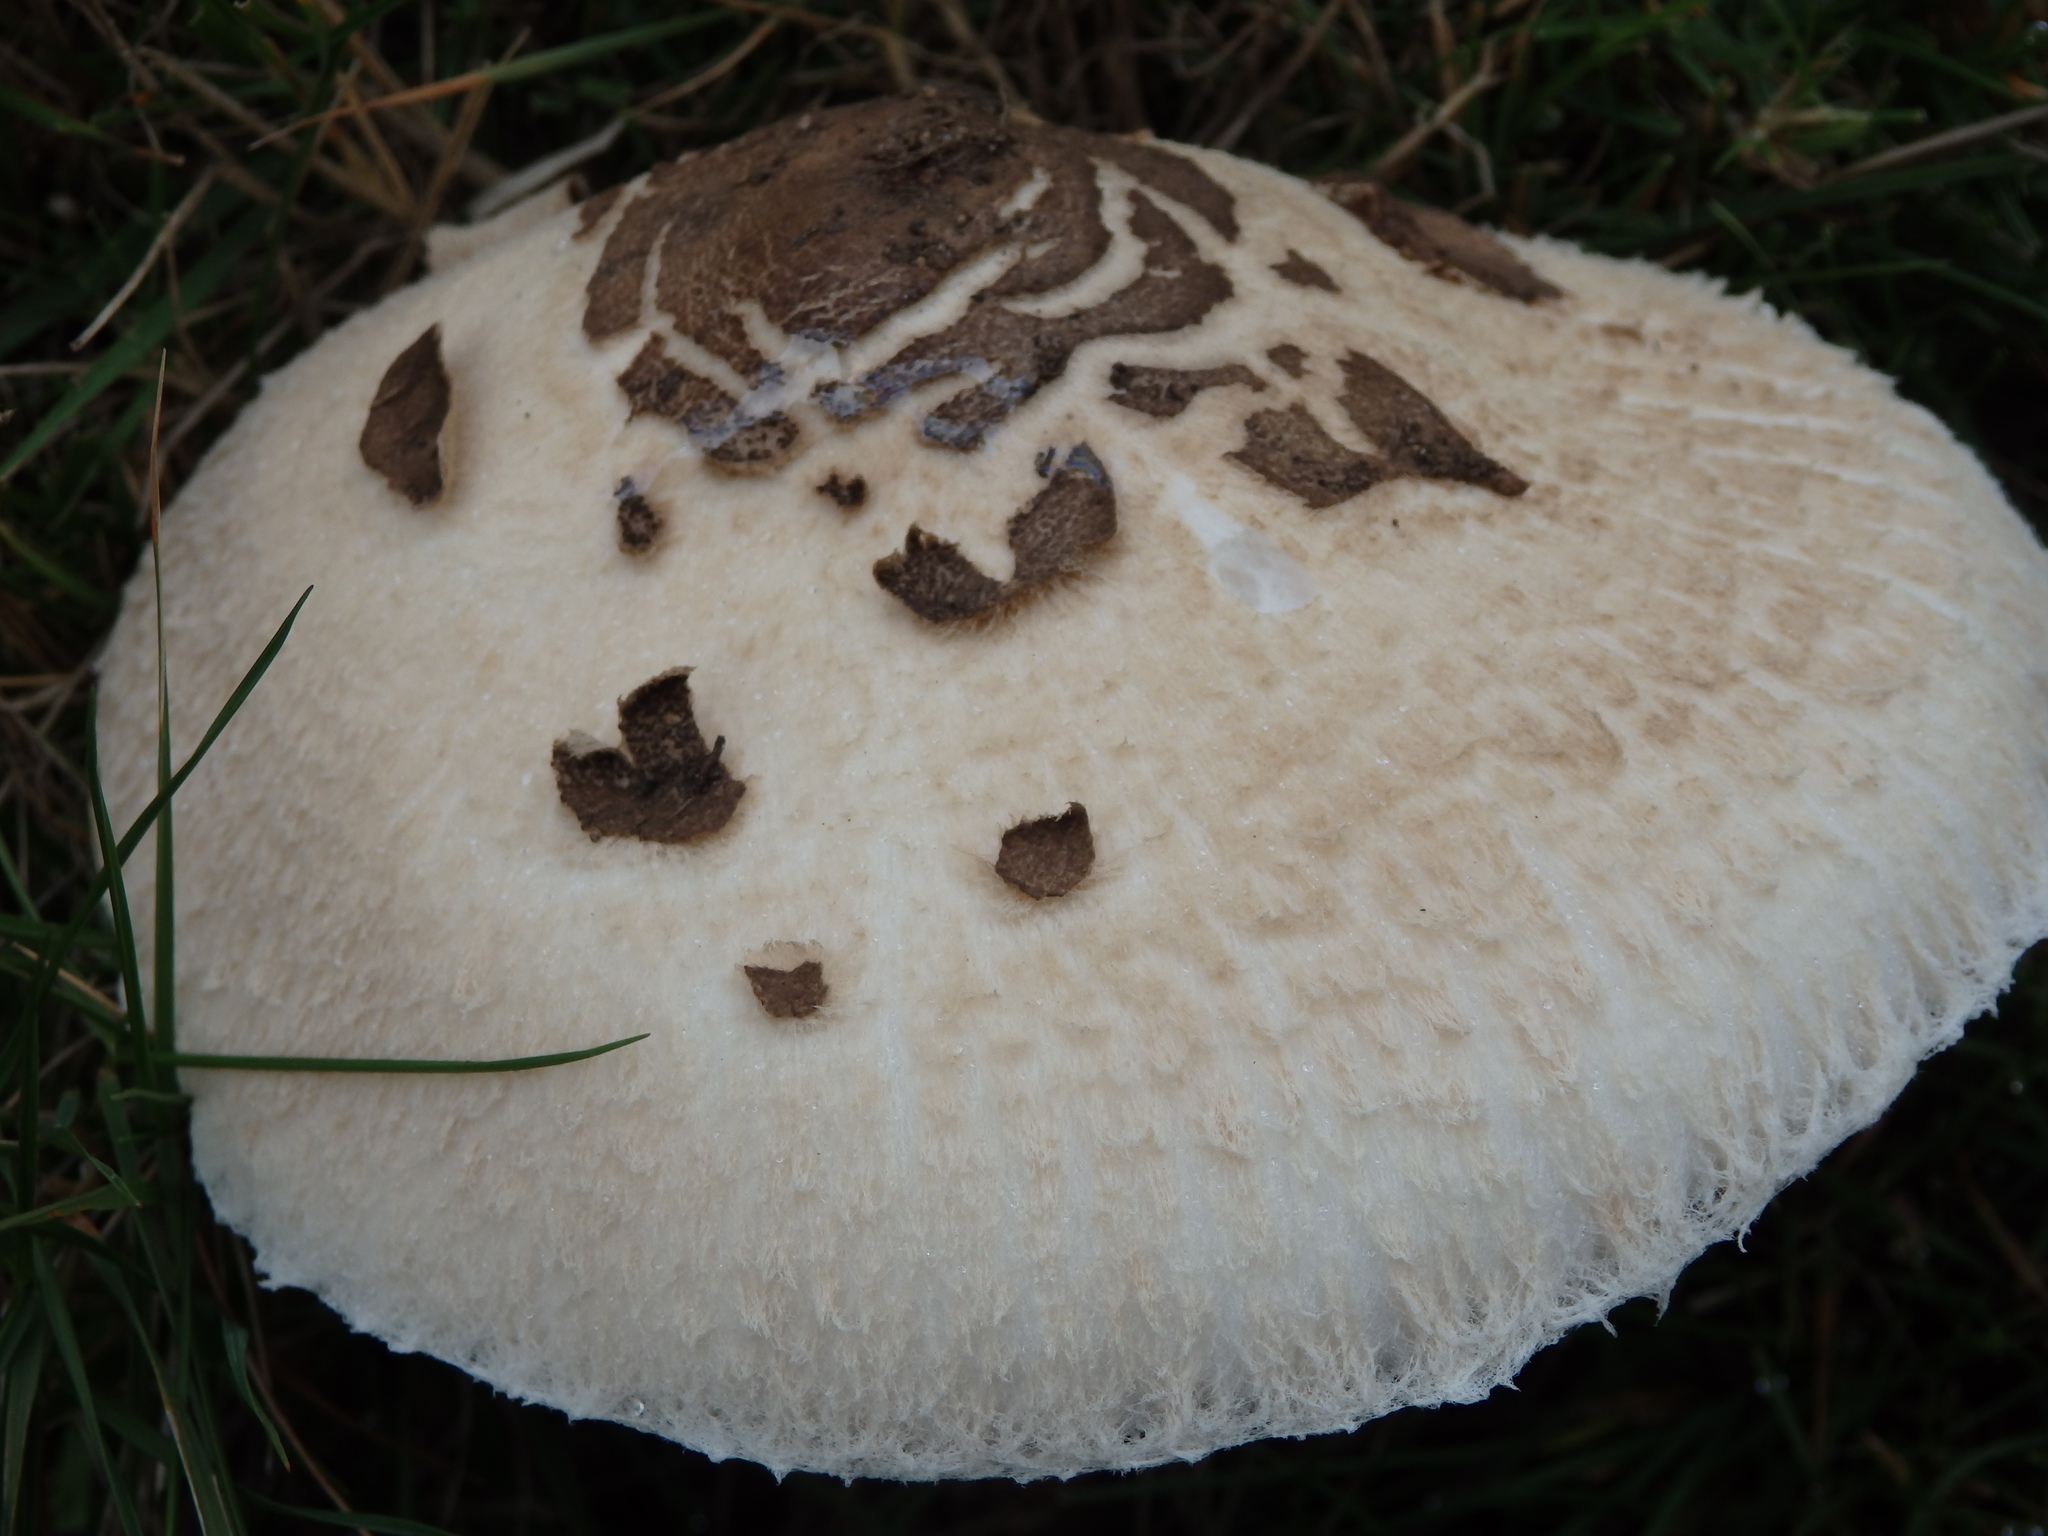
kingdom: Fungi
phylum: Basidiomycota
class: Agaricomycetes
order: Agaricales
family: Agaricaceae
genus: Macrolepiota
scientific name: Macrolepiota procera
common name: Parasol
